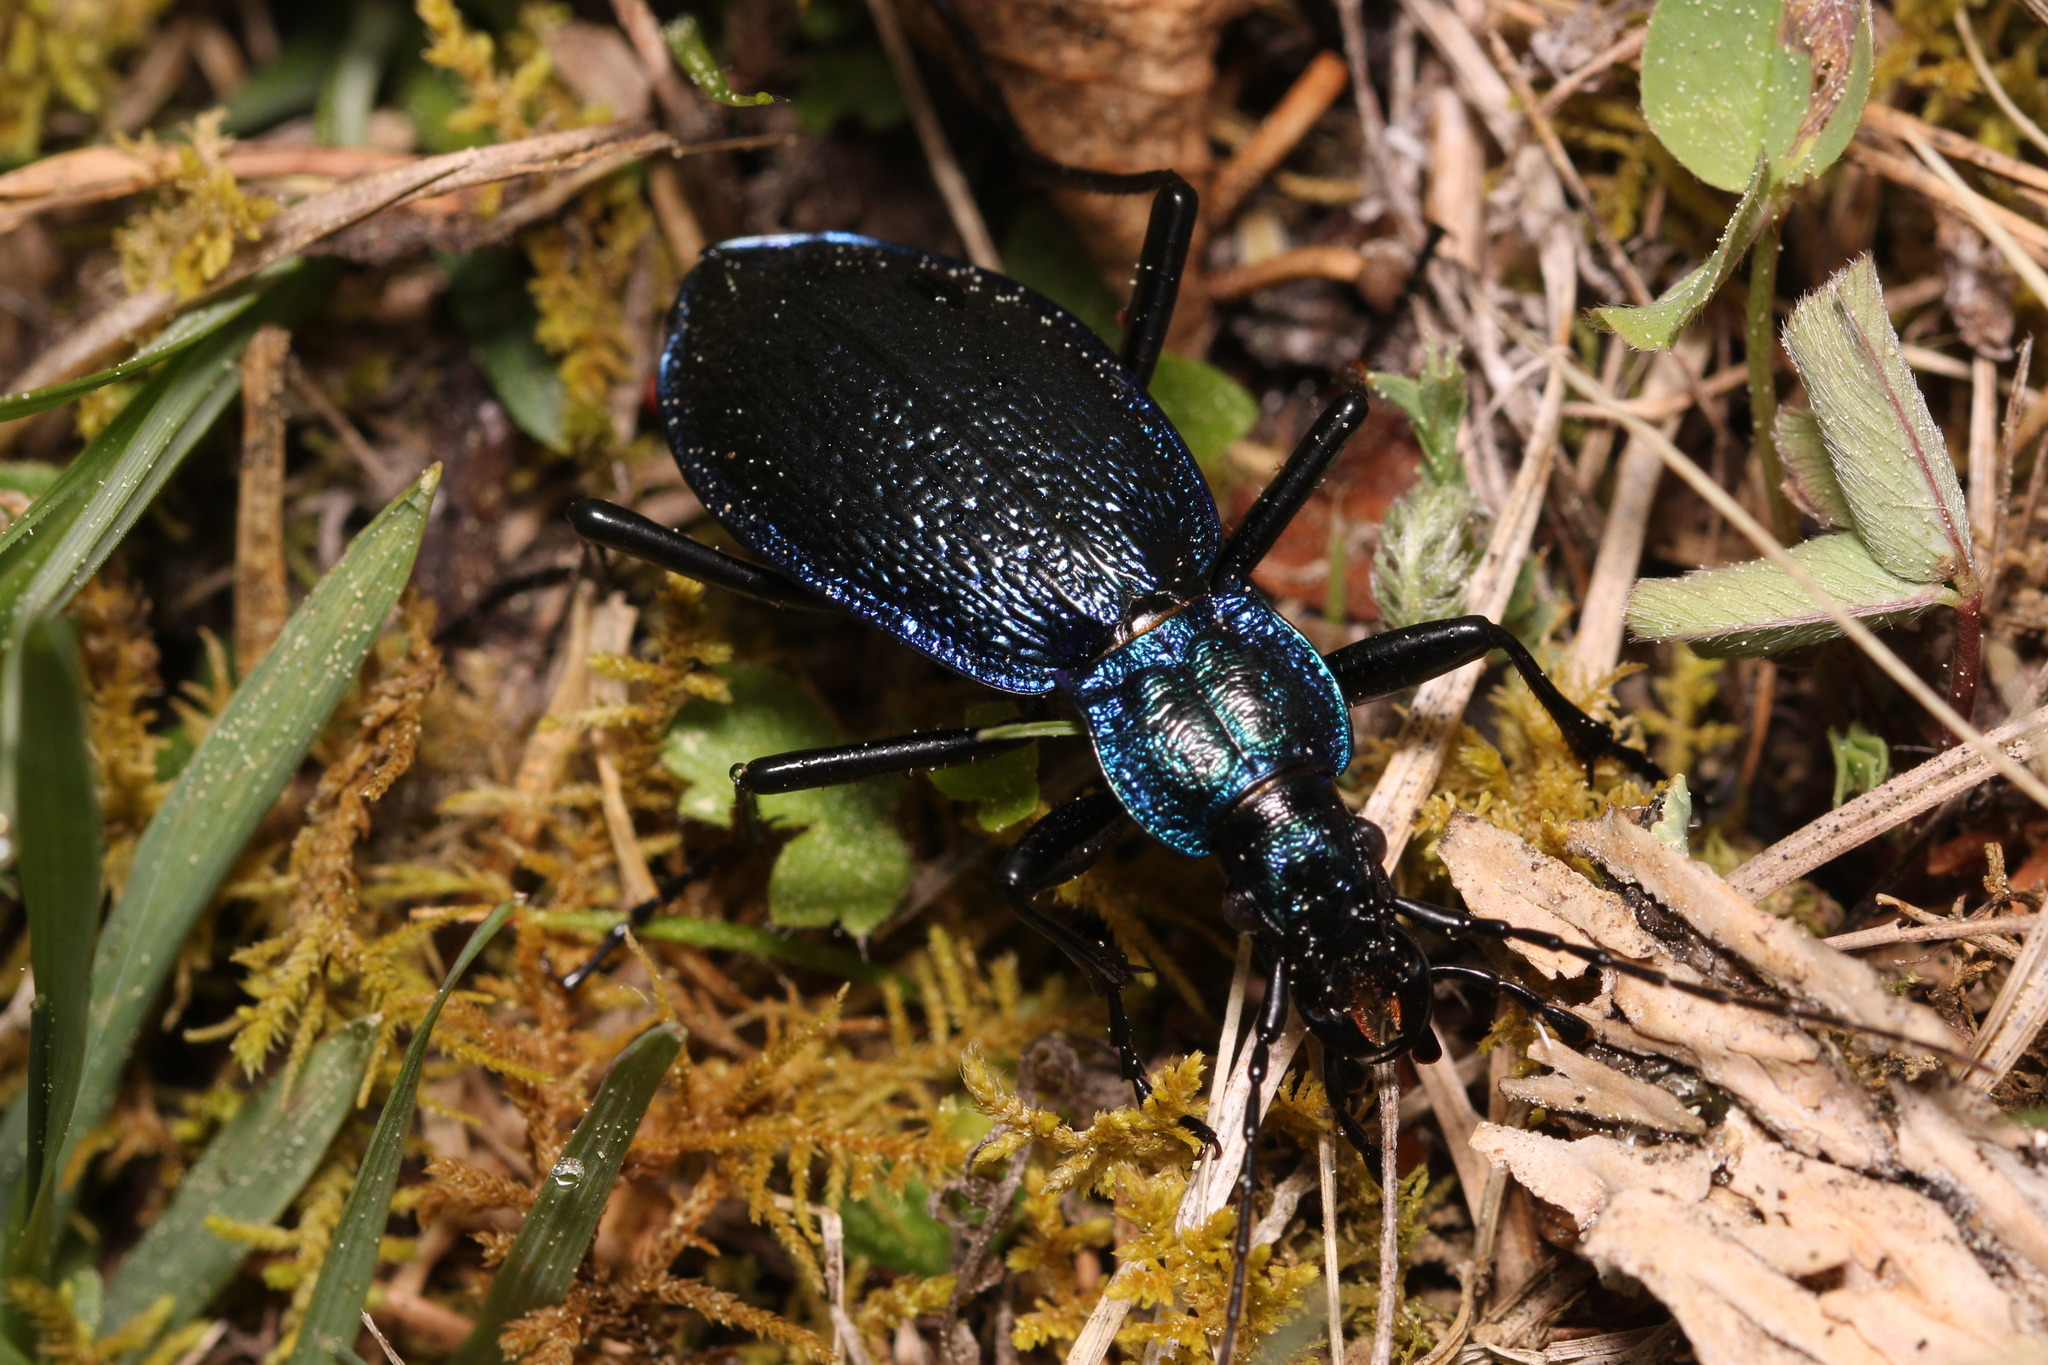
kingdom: Animalia
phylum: Arthropoda
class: Insecta
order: Coleoptera
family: Carabidae
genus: Carabus
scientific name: Carabus intricatus
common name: Blue ground beetle
